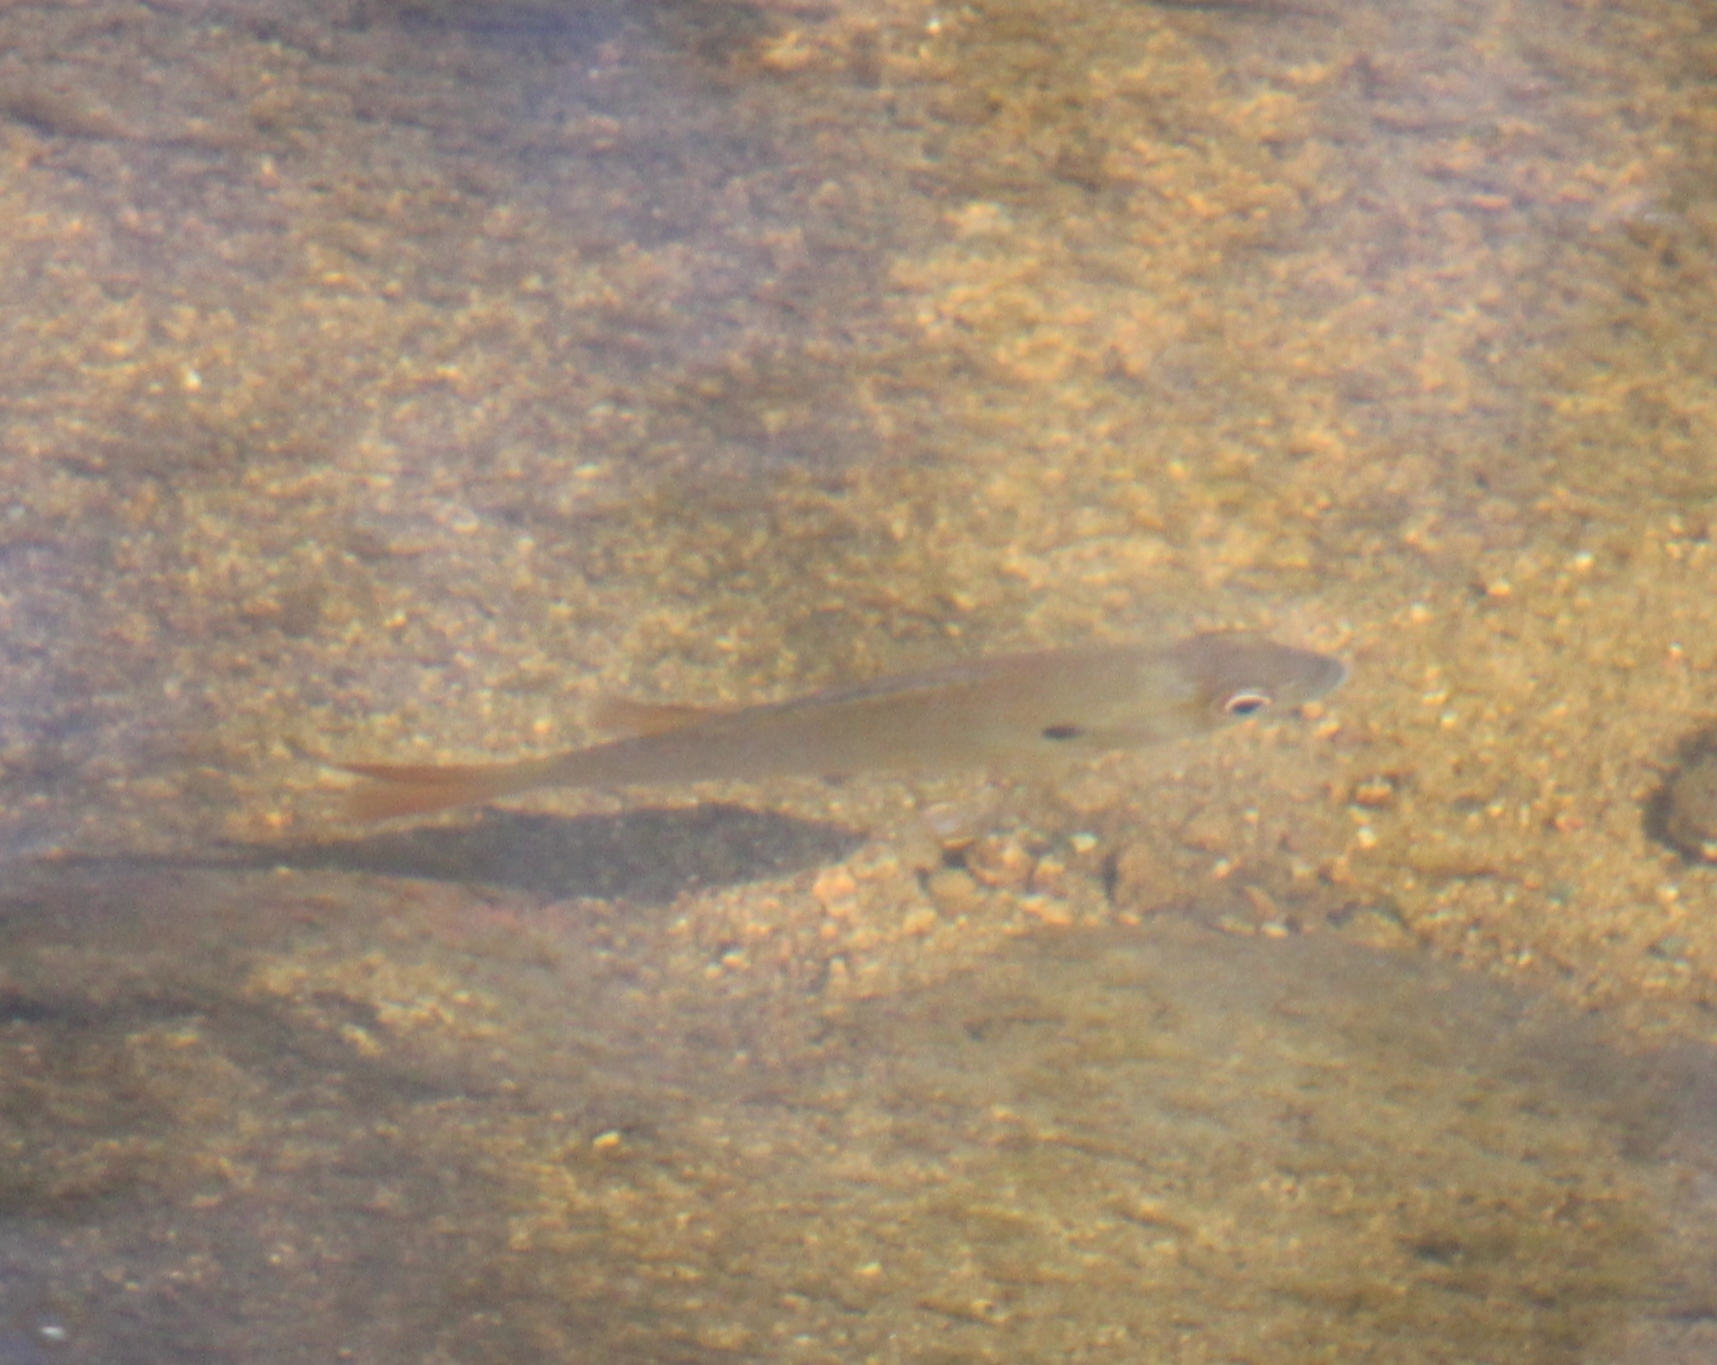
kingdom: Animalia
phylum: Chordata
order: Perciformes
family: Centrarchidae
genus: Lepomis
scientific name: Lepomis auritus
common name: Redbreast sunfish
